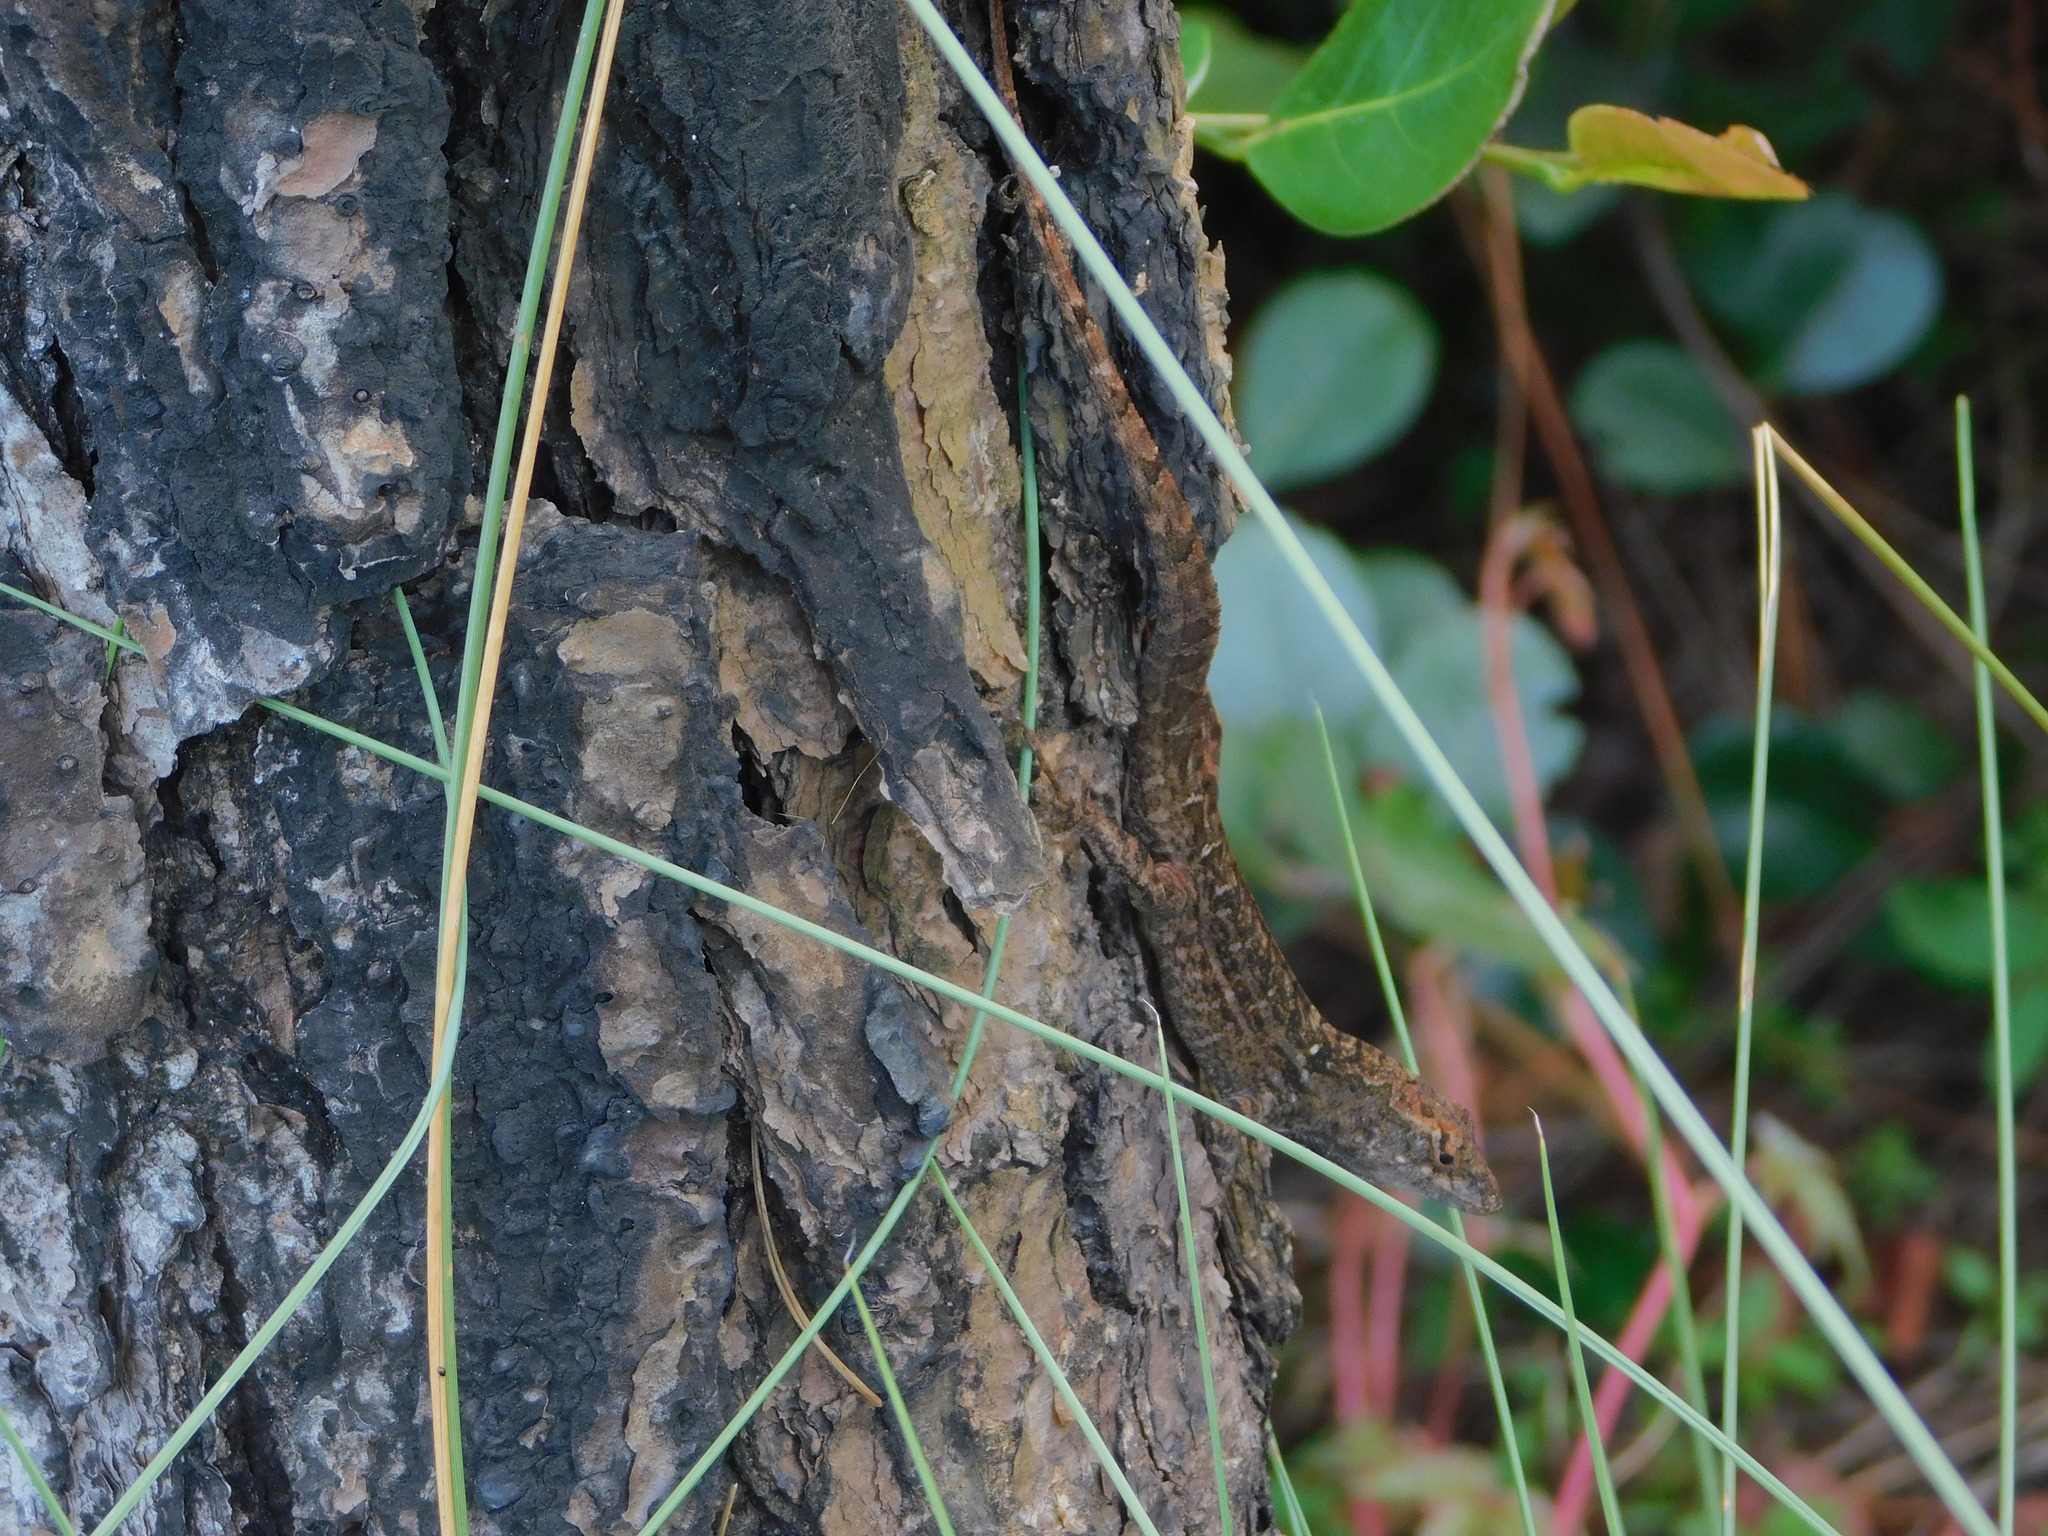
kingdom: Animalia
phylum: Chordata
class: Squamata
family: Dactyloidae
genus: Anolis
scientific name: Anolis sagrei
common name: Brown anole
